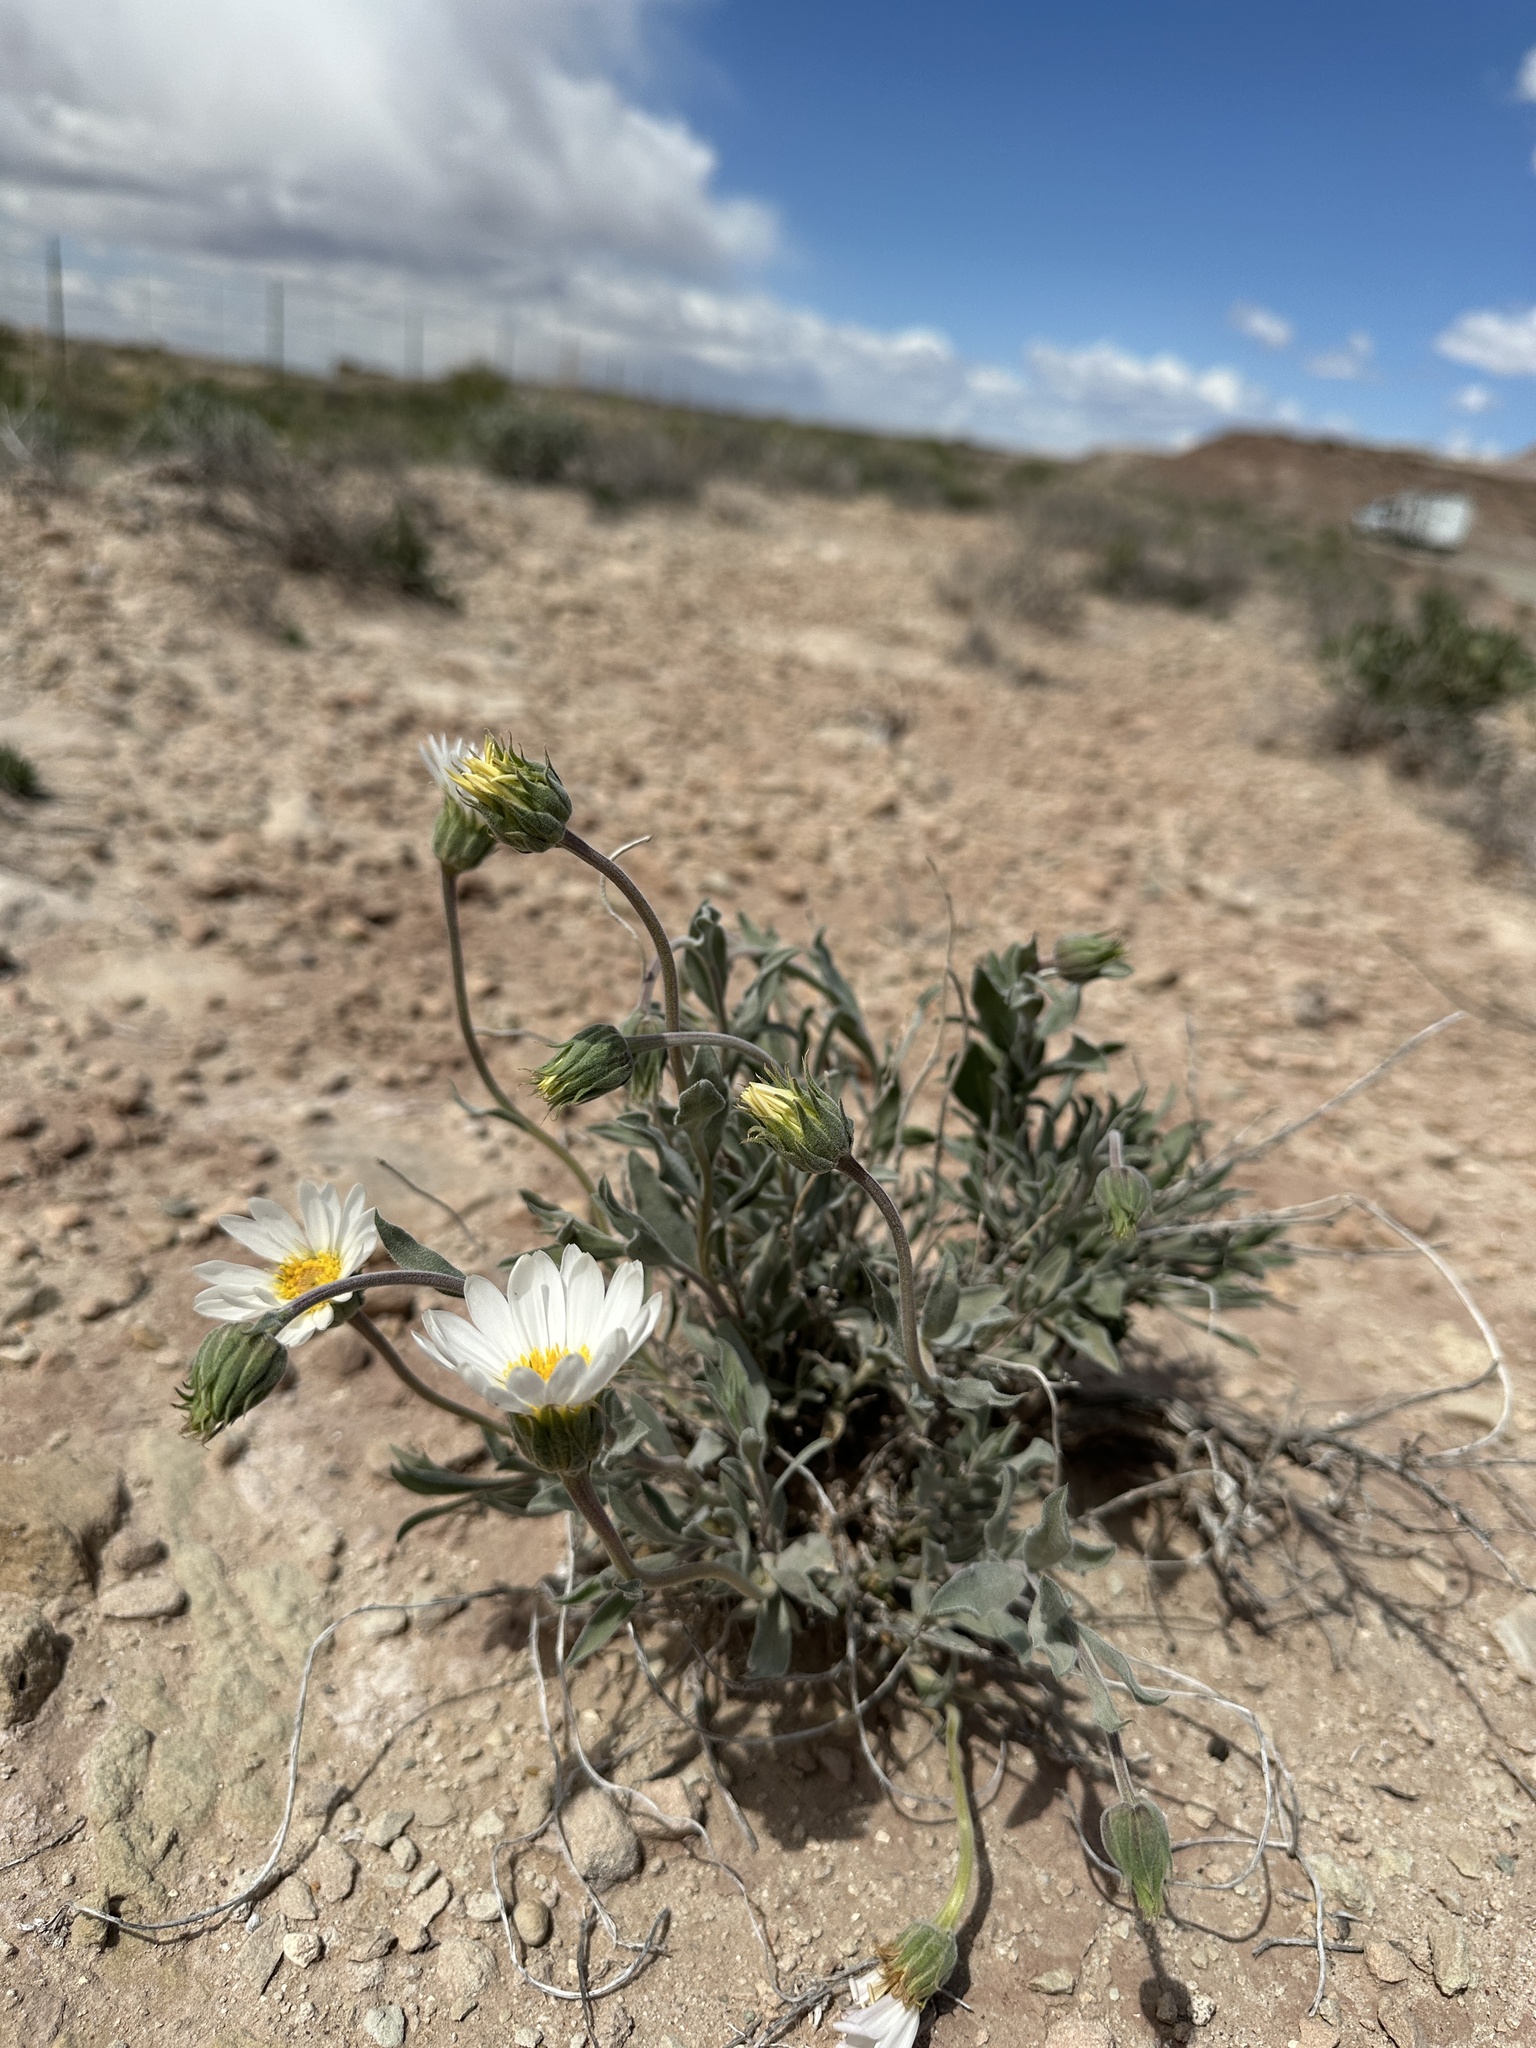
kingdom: Plantae
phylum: Tracheophyta
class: Magnoliopsida
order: Asterales
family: Asteraceae
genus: Xylorhiza
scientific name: Xylorhiza venusta
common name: Cisco woody-aster
